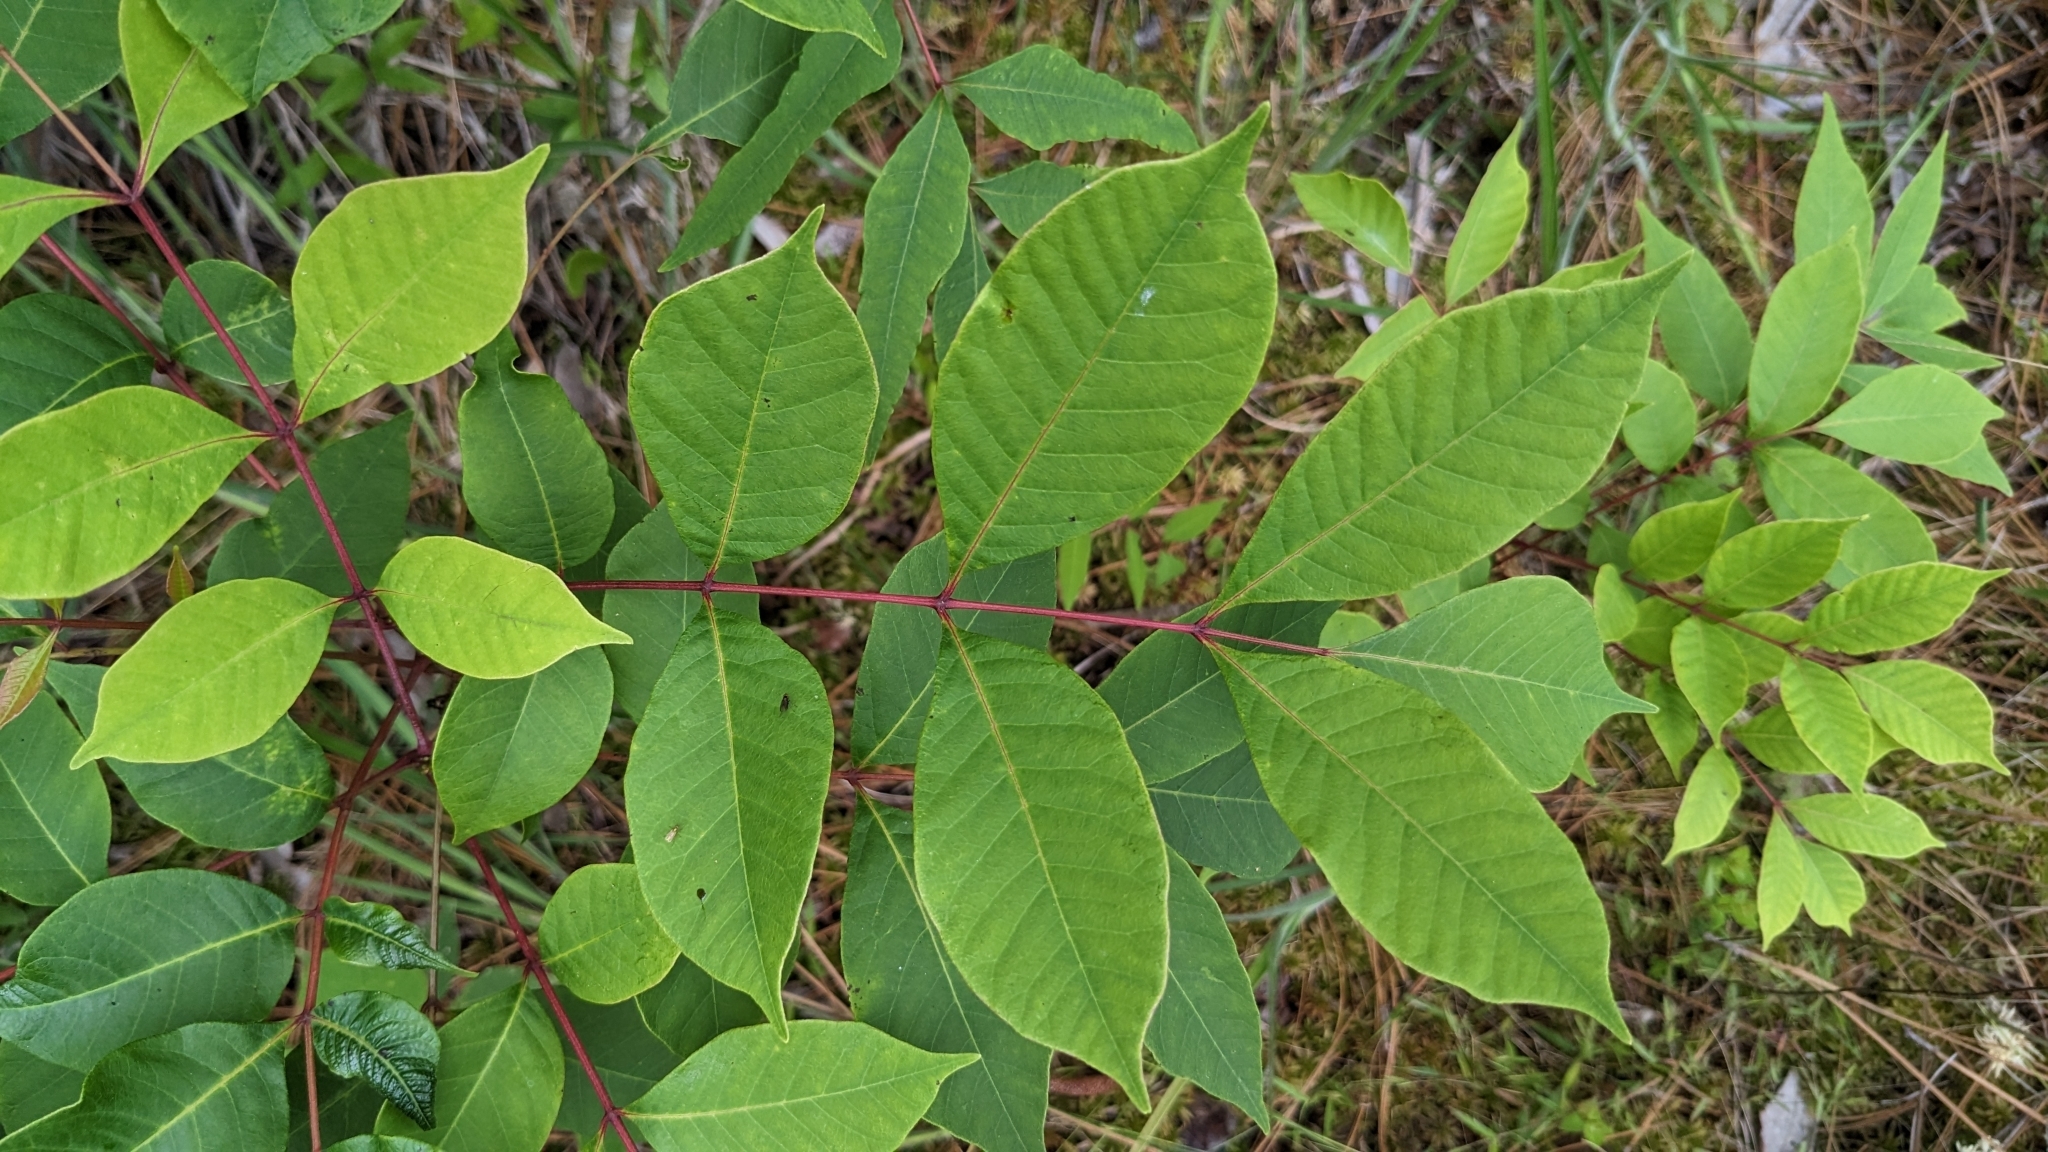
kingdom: Plantae
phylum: Tracheophyta
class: Magnoliopsida
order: Sapindales
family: Anacardiaceae
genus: Toxicodendron
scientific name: Toxicodendron vernix
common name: Poison sumac
